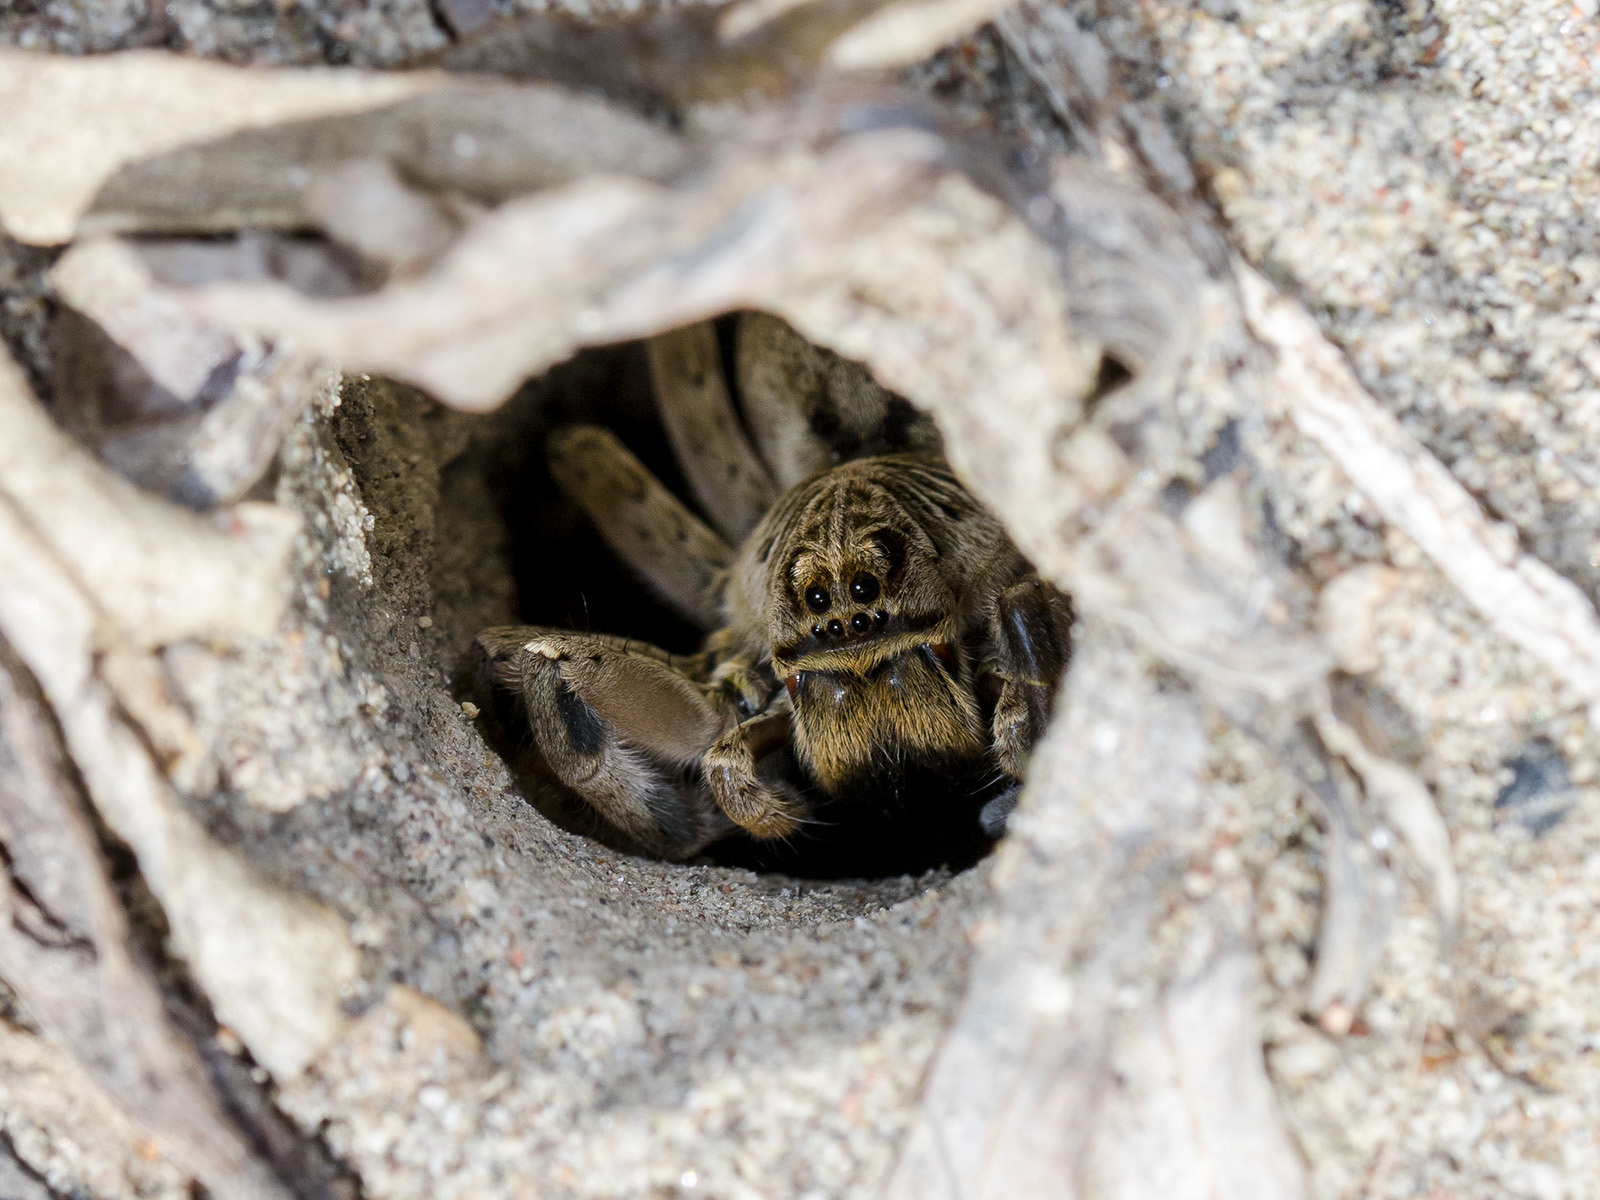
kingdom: Animalia
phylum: Arthropoda
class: Arachnida
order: Araneae
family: Lycosidae
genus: Lycosa
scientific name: Lycosa singoriensis
